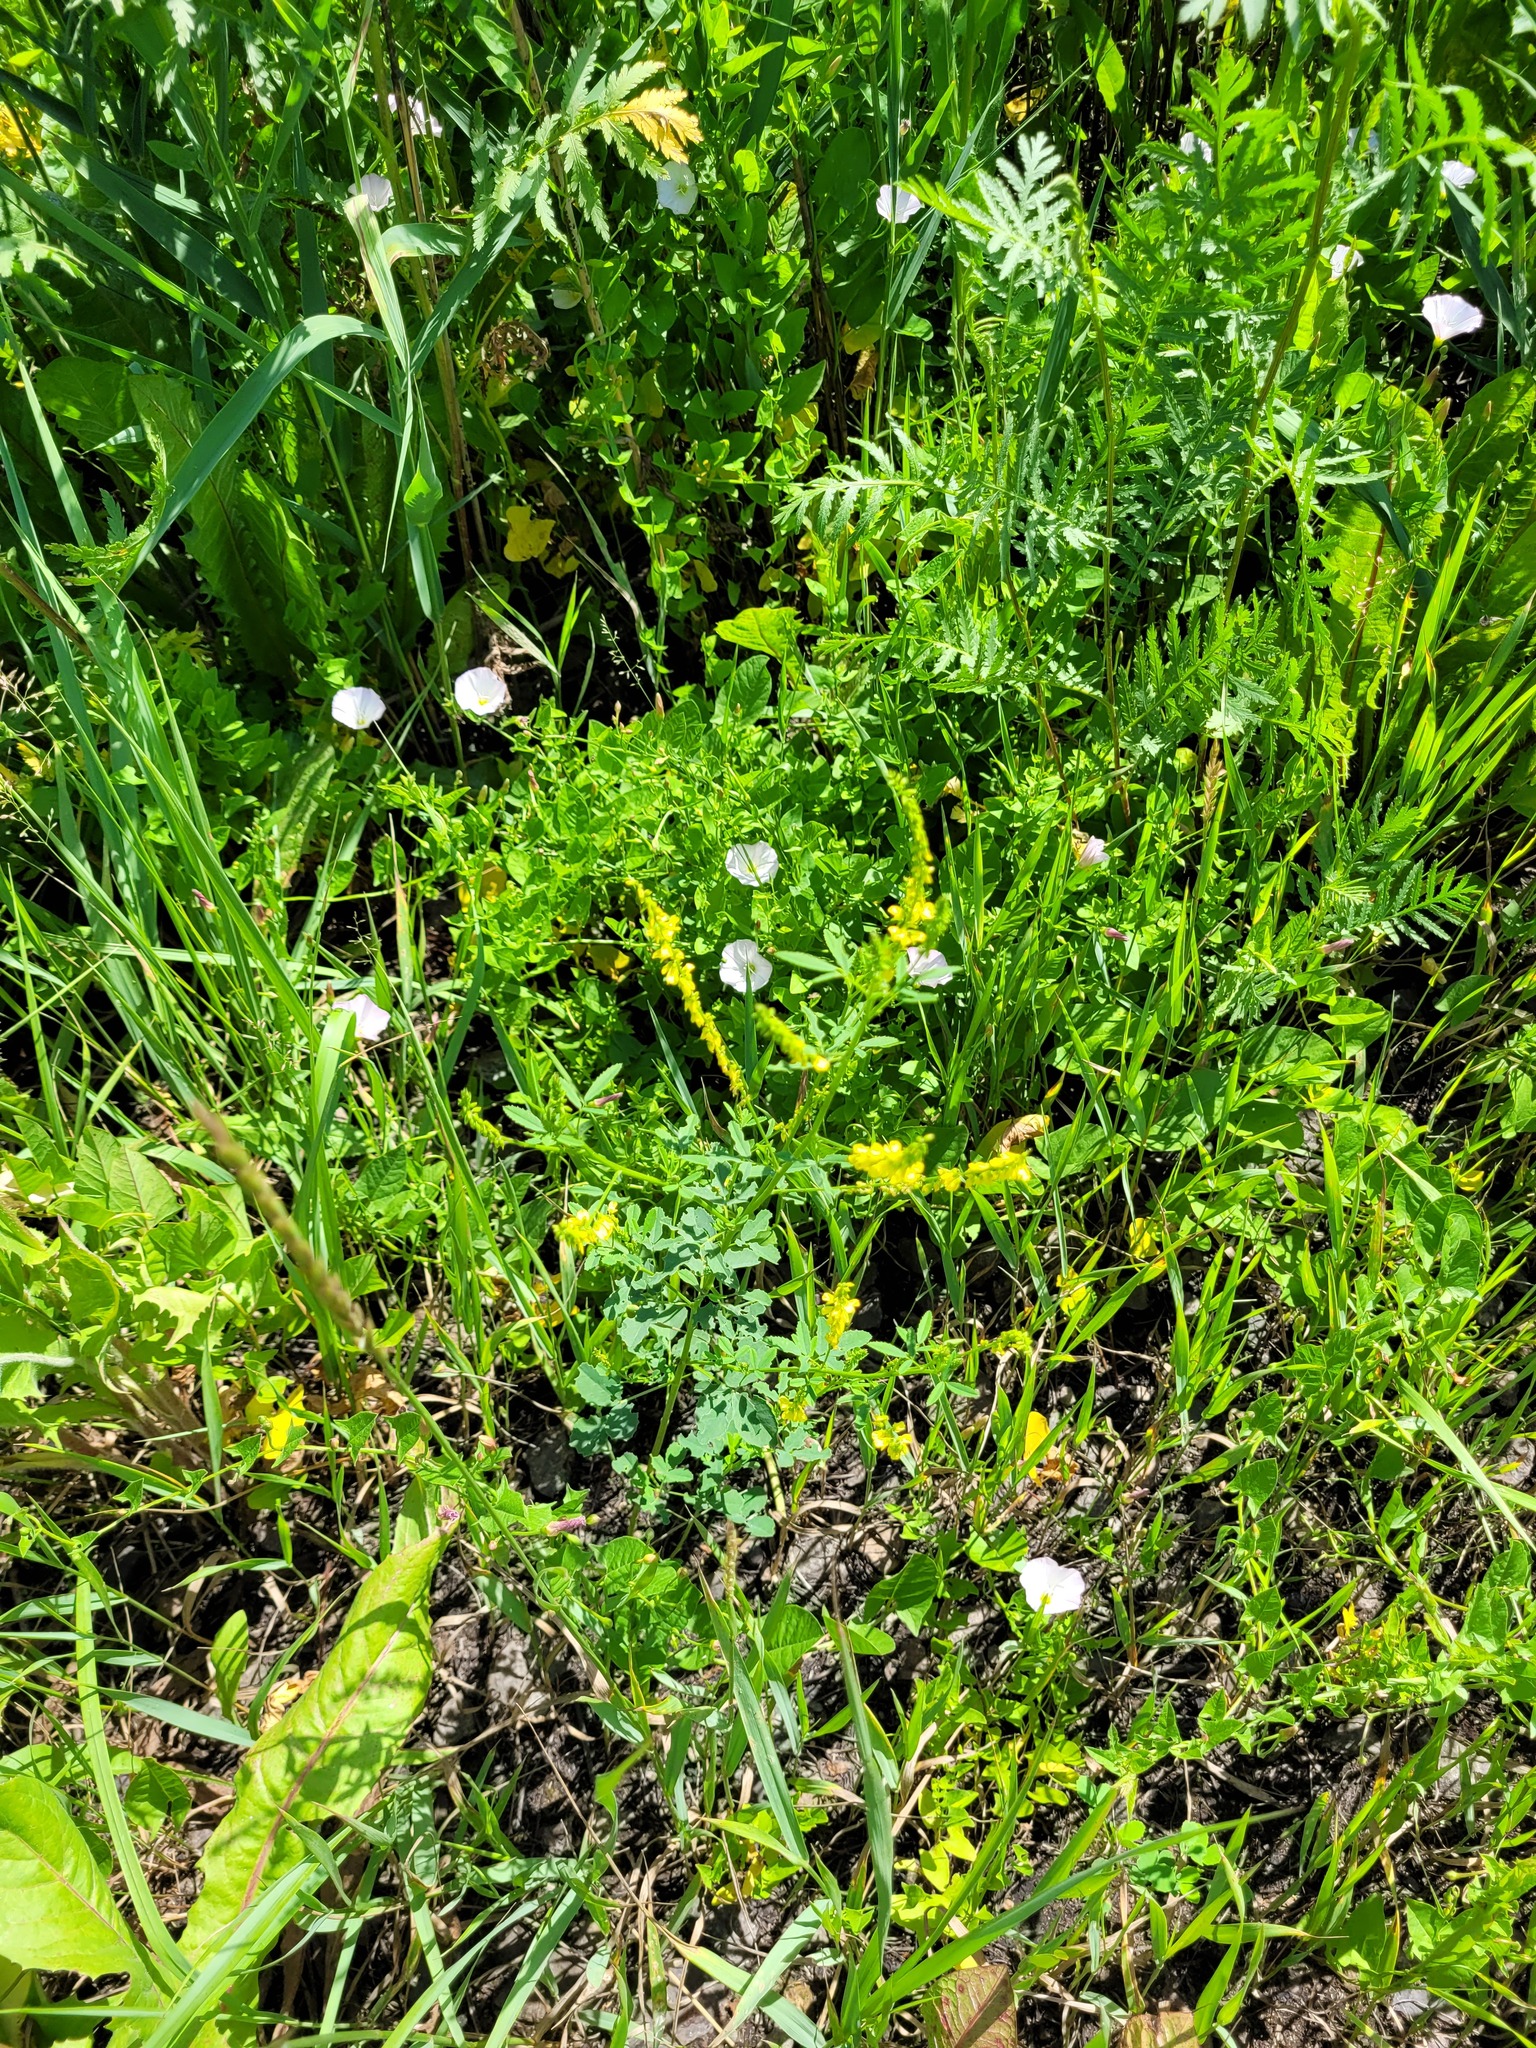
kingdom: Plantae
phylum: Tracheophyta
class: Magnoliopsida
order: Fabales
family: Fabaceae
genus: Melilotus
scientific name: Melilotus officinalis
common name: Sweetclover
